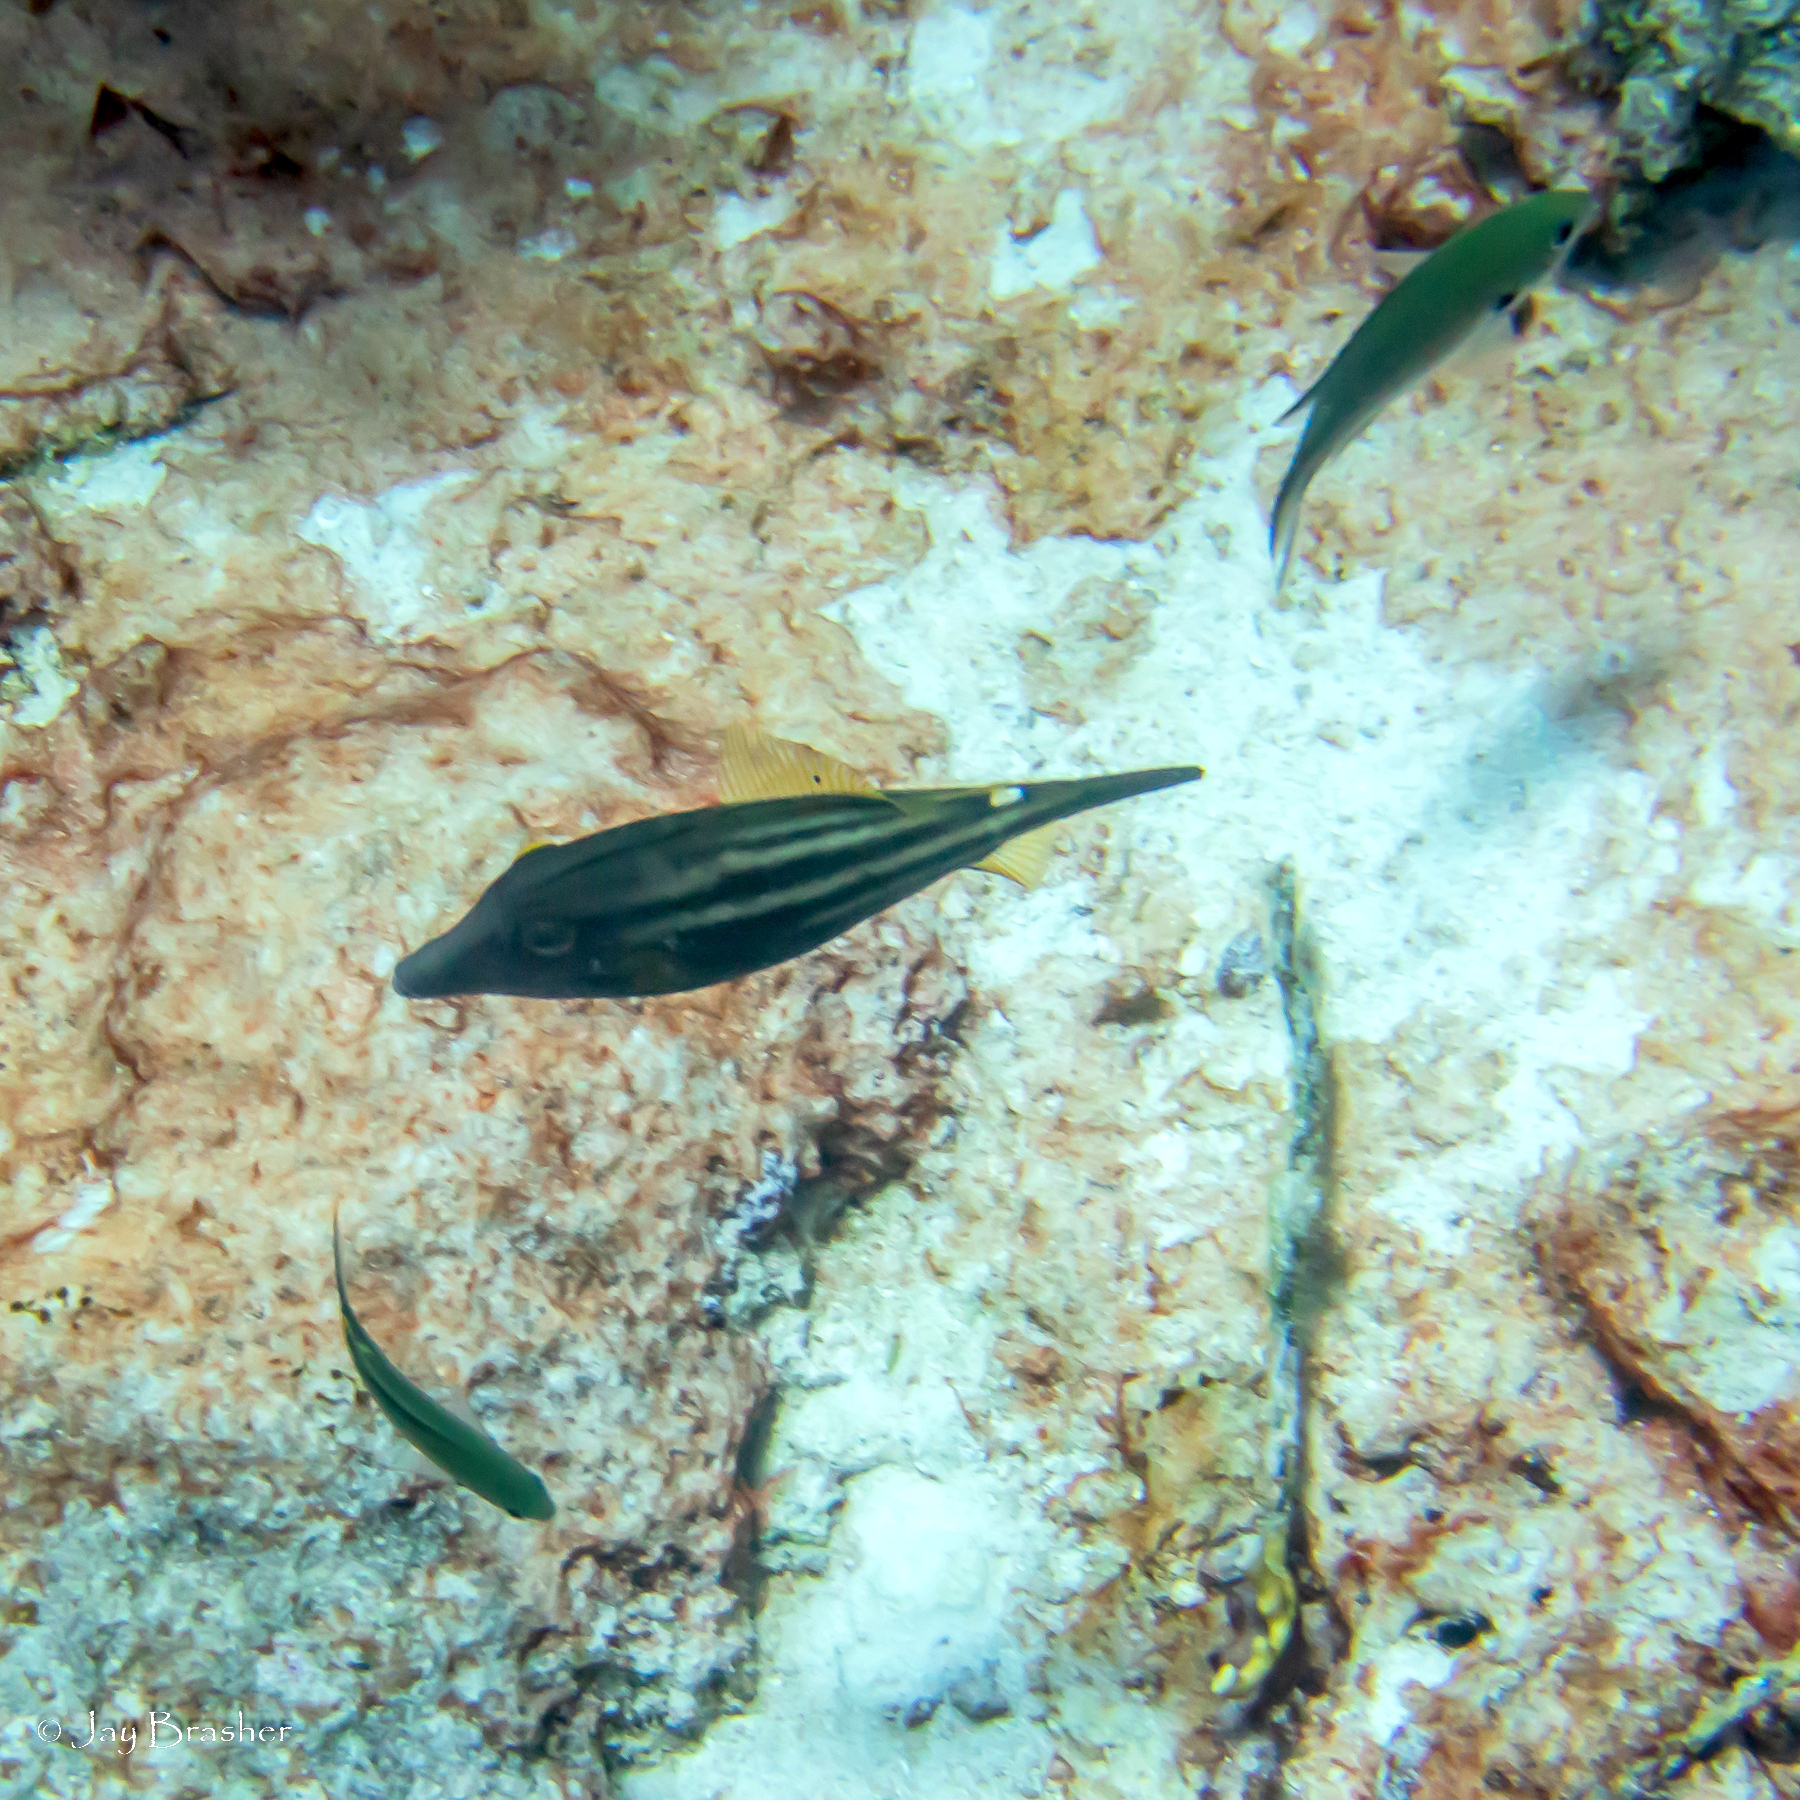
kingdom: Animalia
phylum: Chordata
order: Tetraodontiformes
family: Monacanthidae
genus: Cantherhines
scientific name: Cantherhines pullus
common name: Orangespotted filefish
